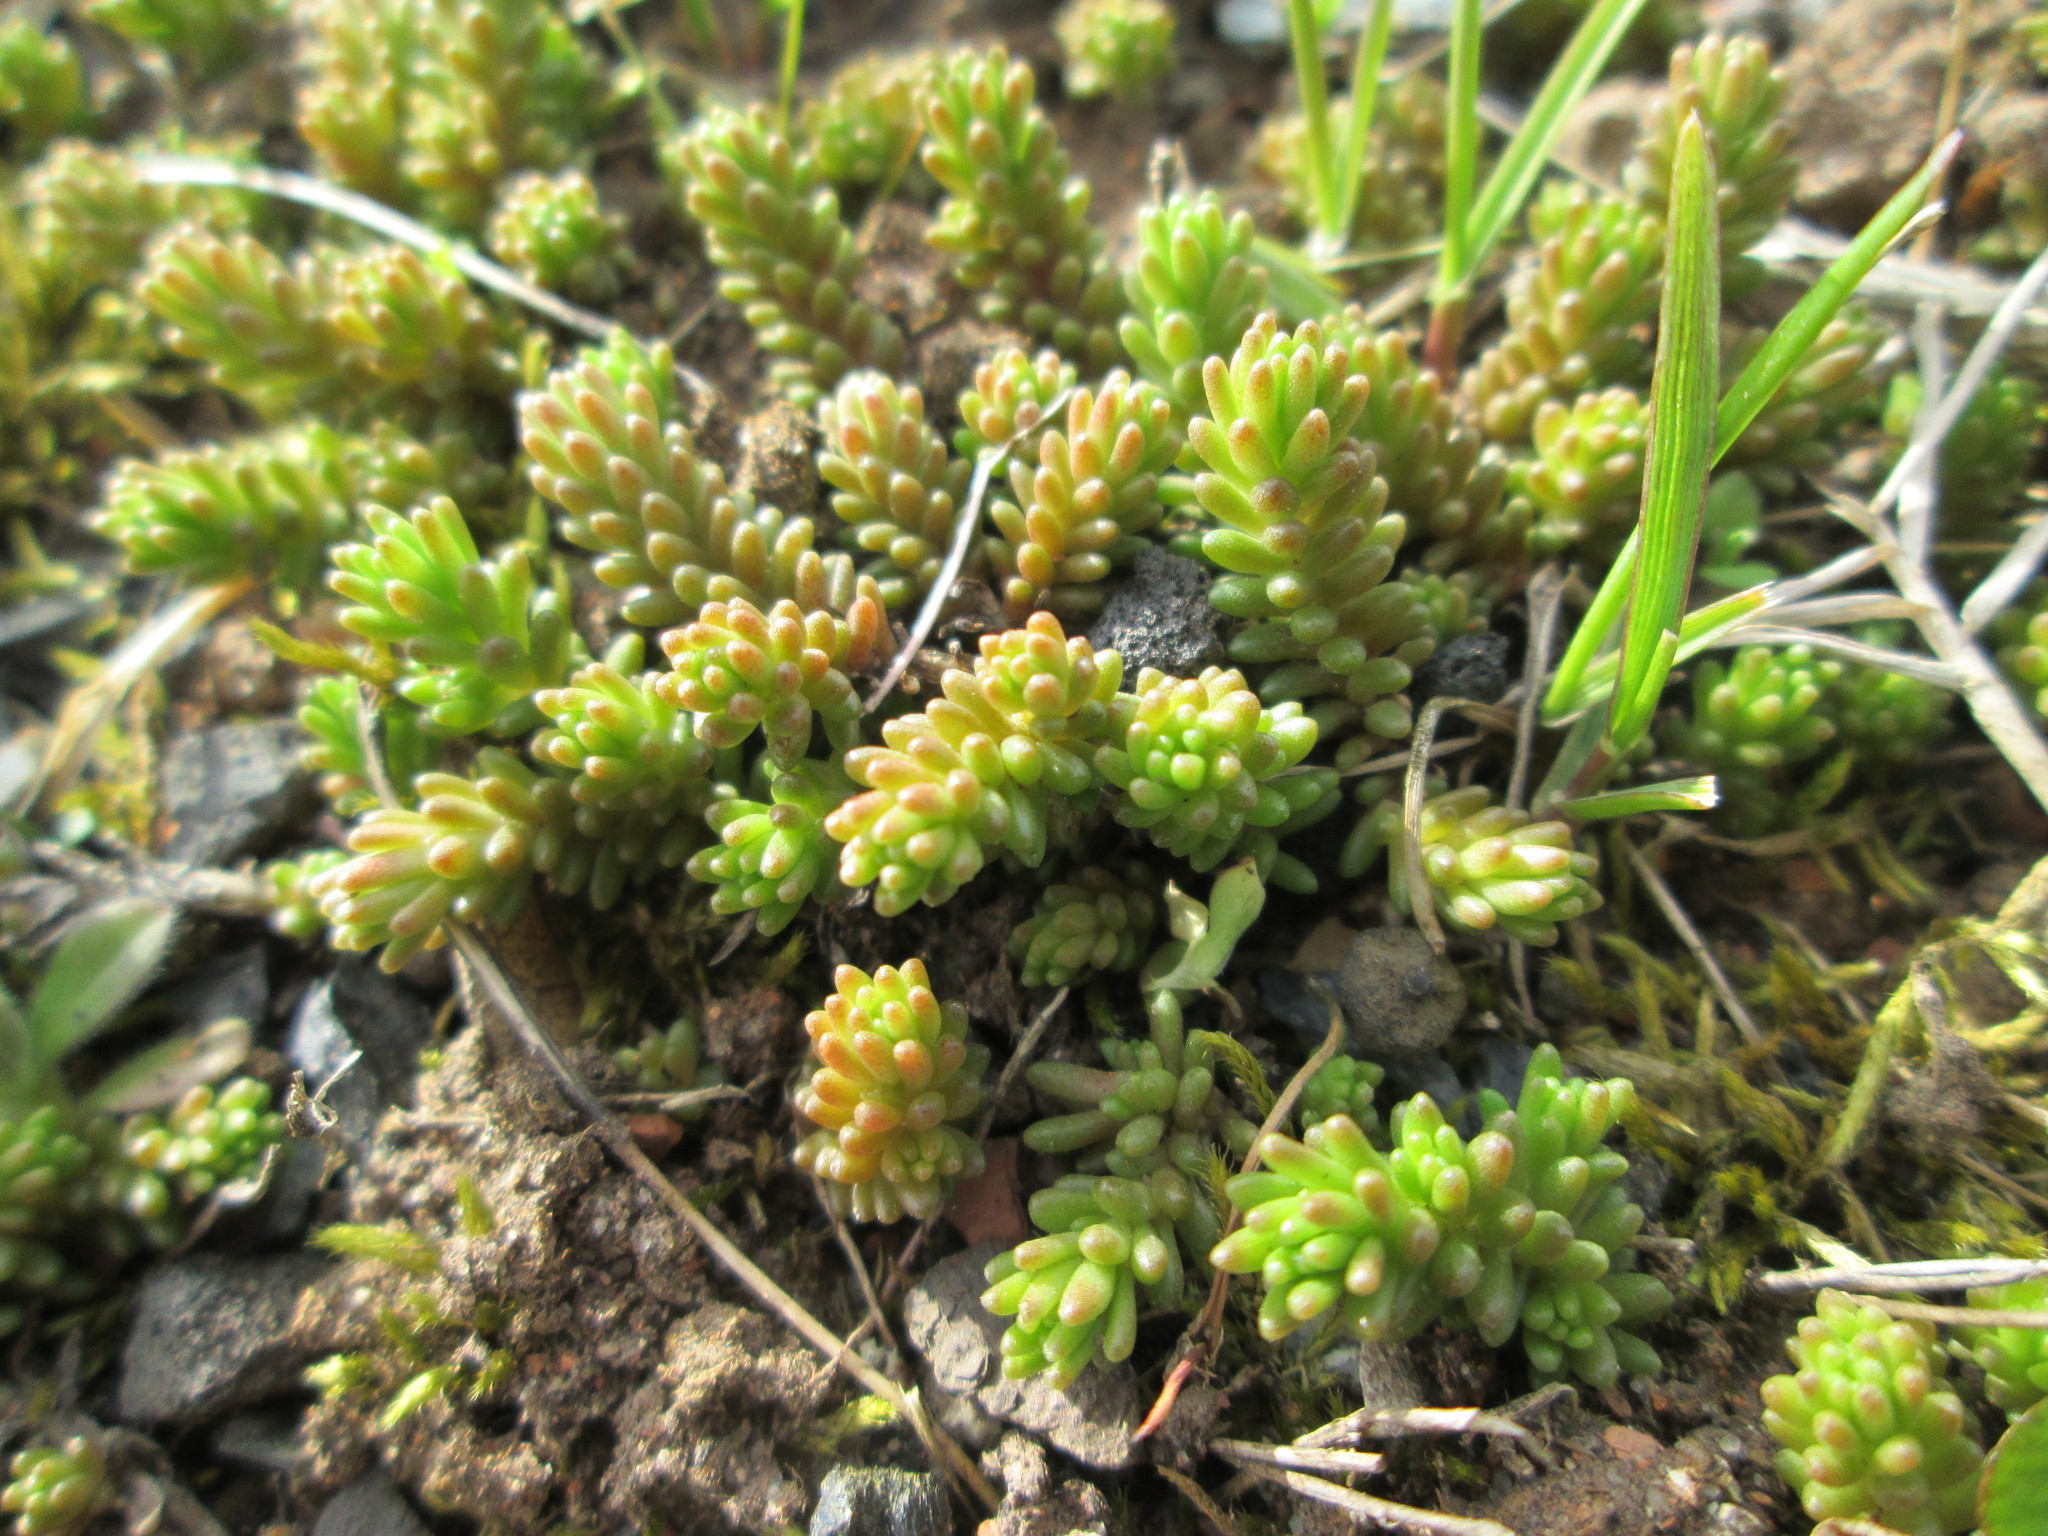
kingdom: Plantae
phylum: Tracheophyta
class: Magnoliopsida
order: Saxifragales
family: Crassulaceae
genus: Sedum
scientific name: Sedum sexangulare
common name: Tasteless stonecrop
